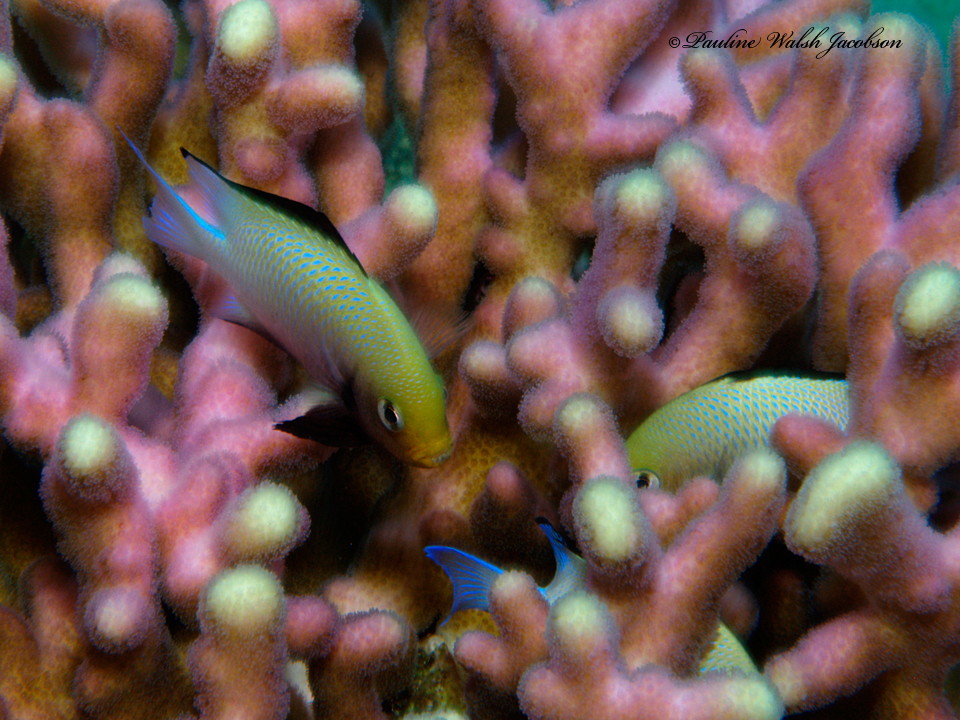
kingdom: Animalia
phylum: Chordata
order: Perciformes
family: Pomacentridae
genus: Dascyllus
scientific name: Dascyllus marginatus
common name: Red sea dascyllus
